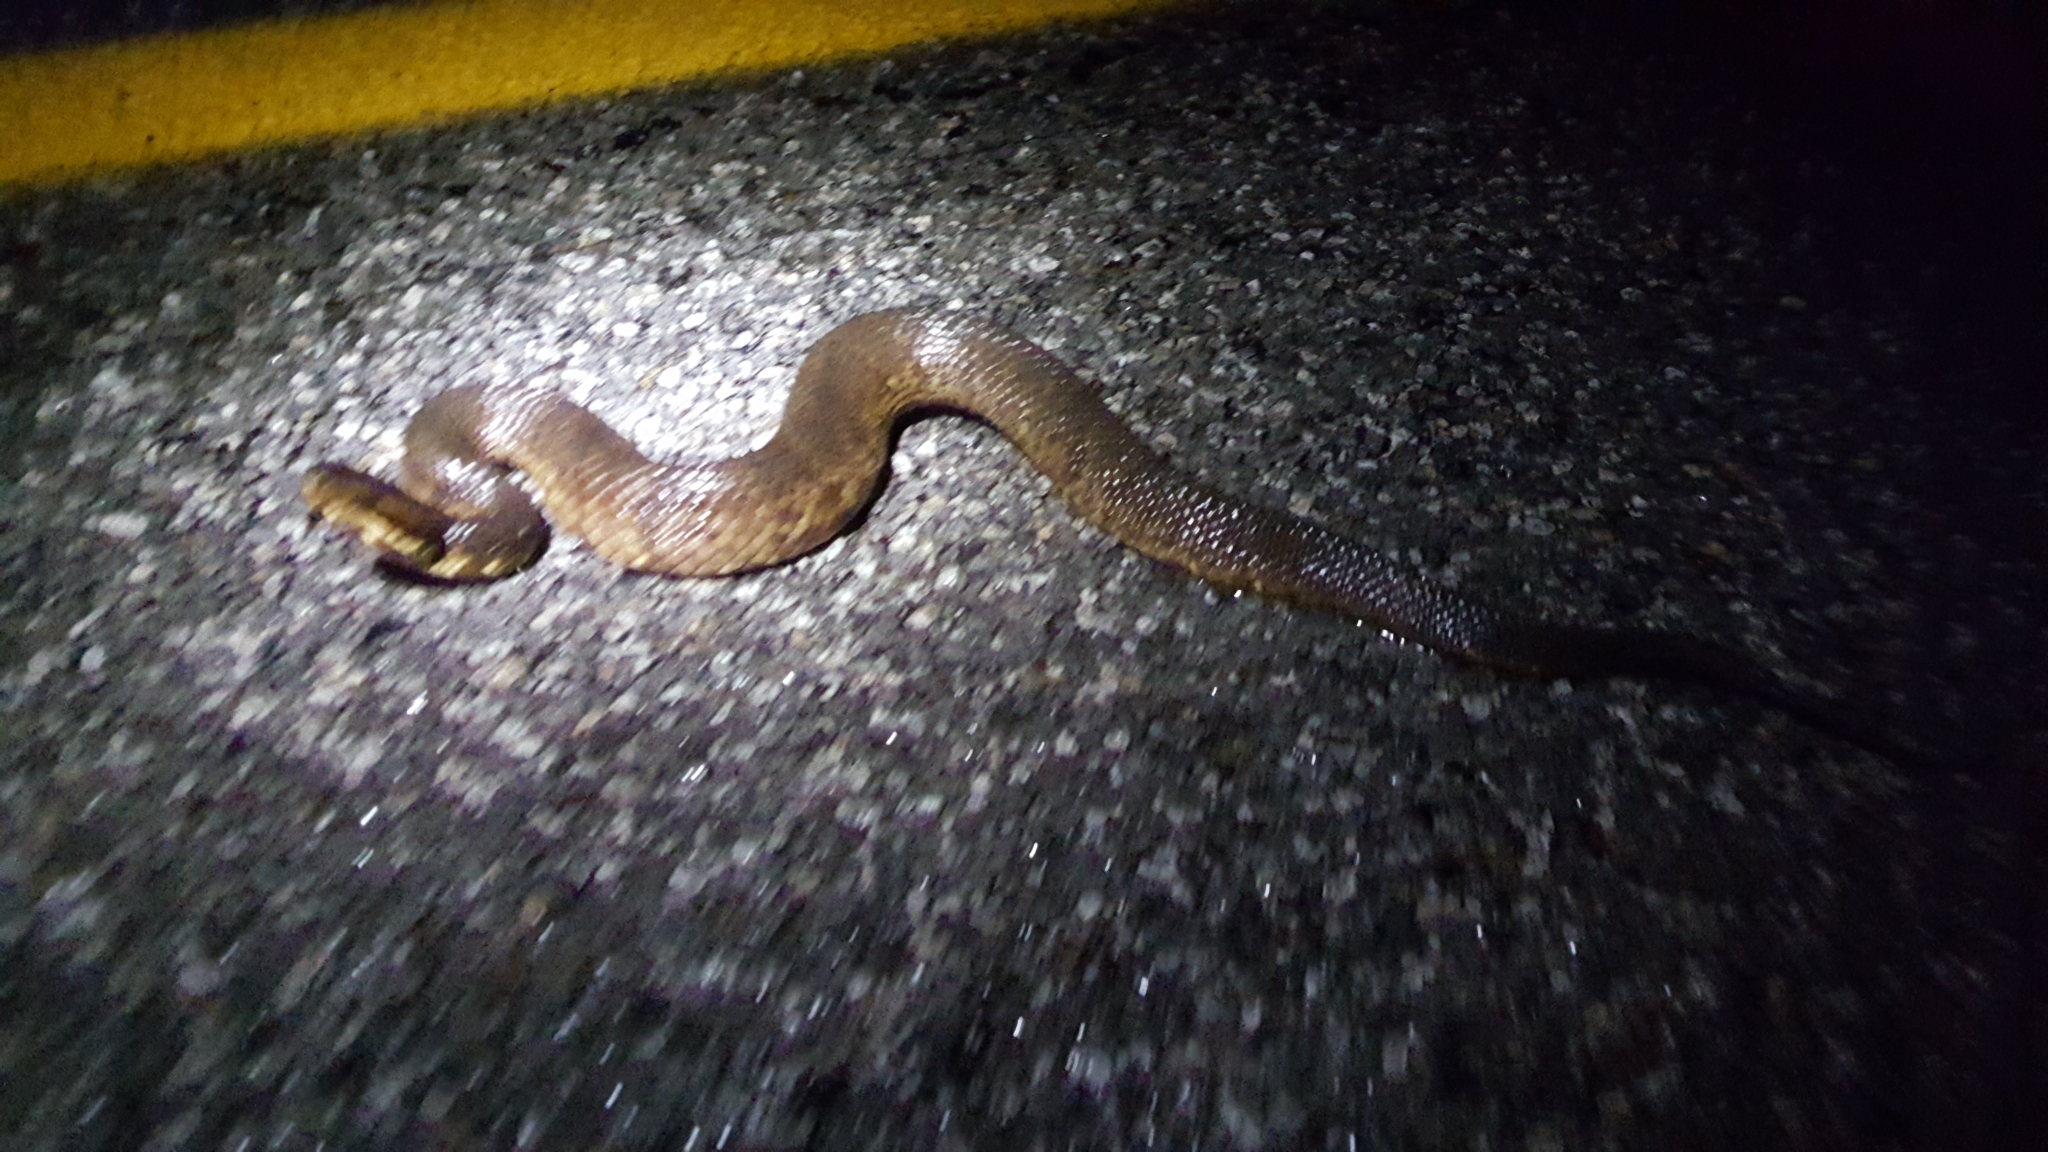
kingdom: Animalia
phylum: Chordata
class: Squamata
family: Viperidae
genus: Agkistrodon
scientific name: Agkistrodon piscivorus
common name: Cottonmouth
